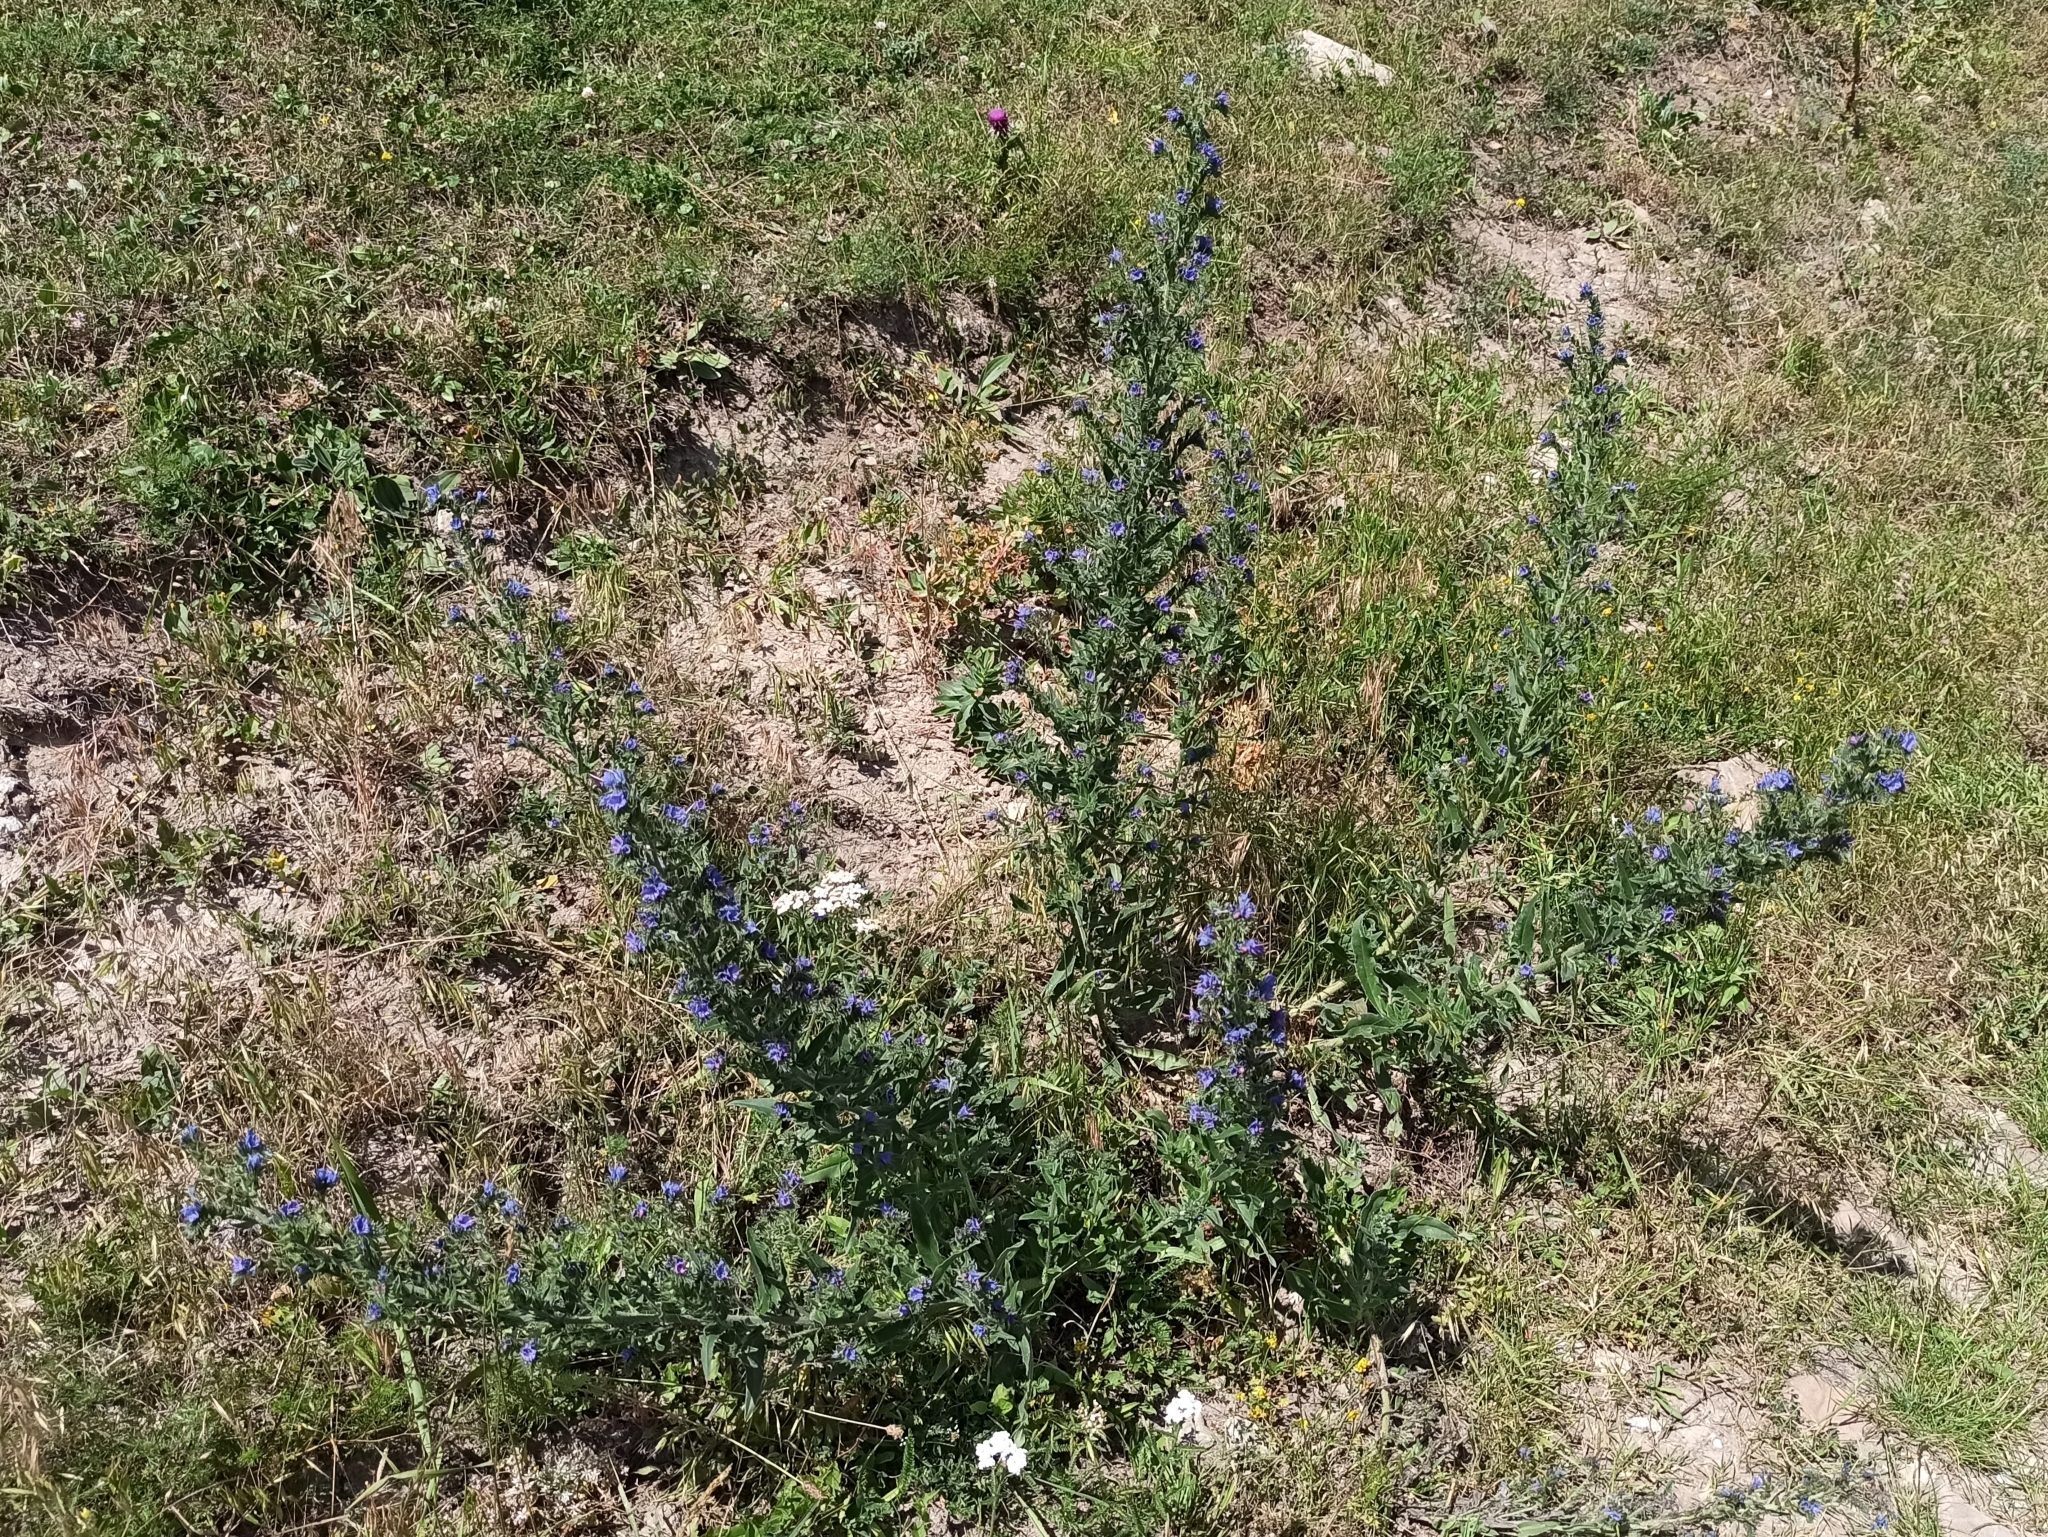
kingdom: Plantae
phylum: Tracheophyta
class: Magnoliopsida
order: Boraginales
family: Boraginaceae
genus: Echium
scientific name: Echium vulgare
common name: Common viper's bugloss
